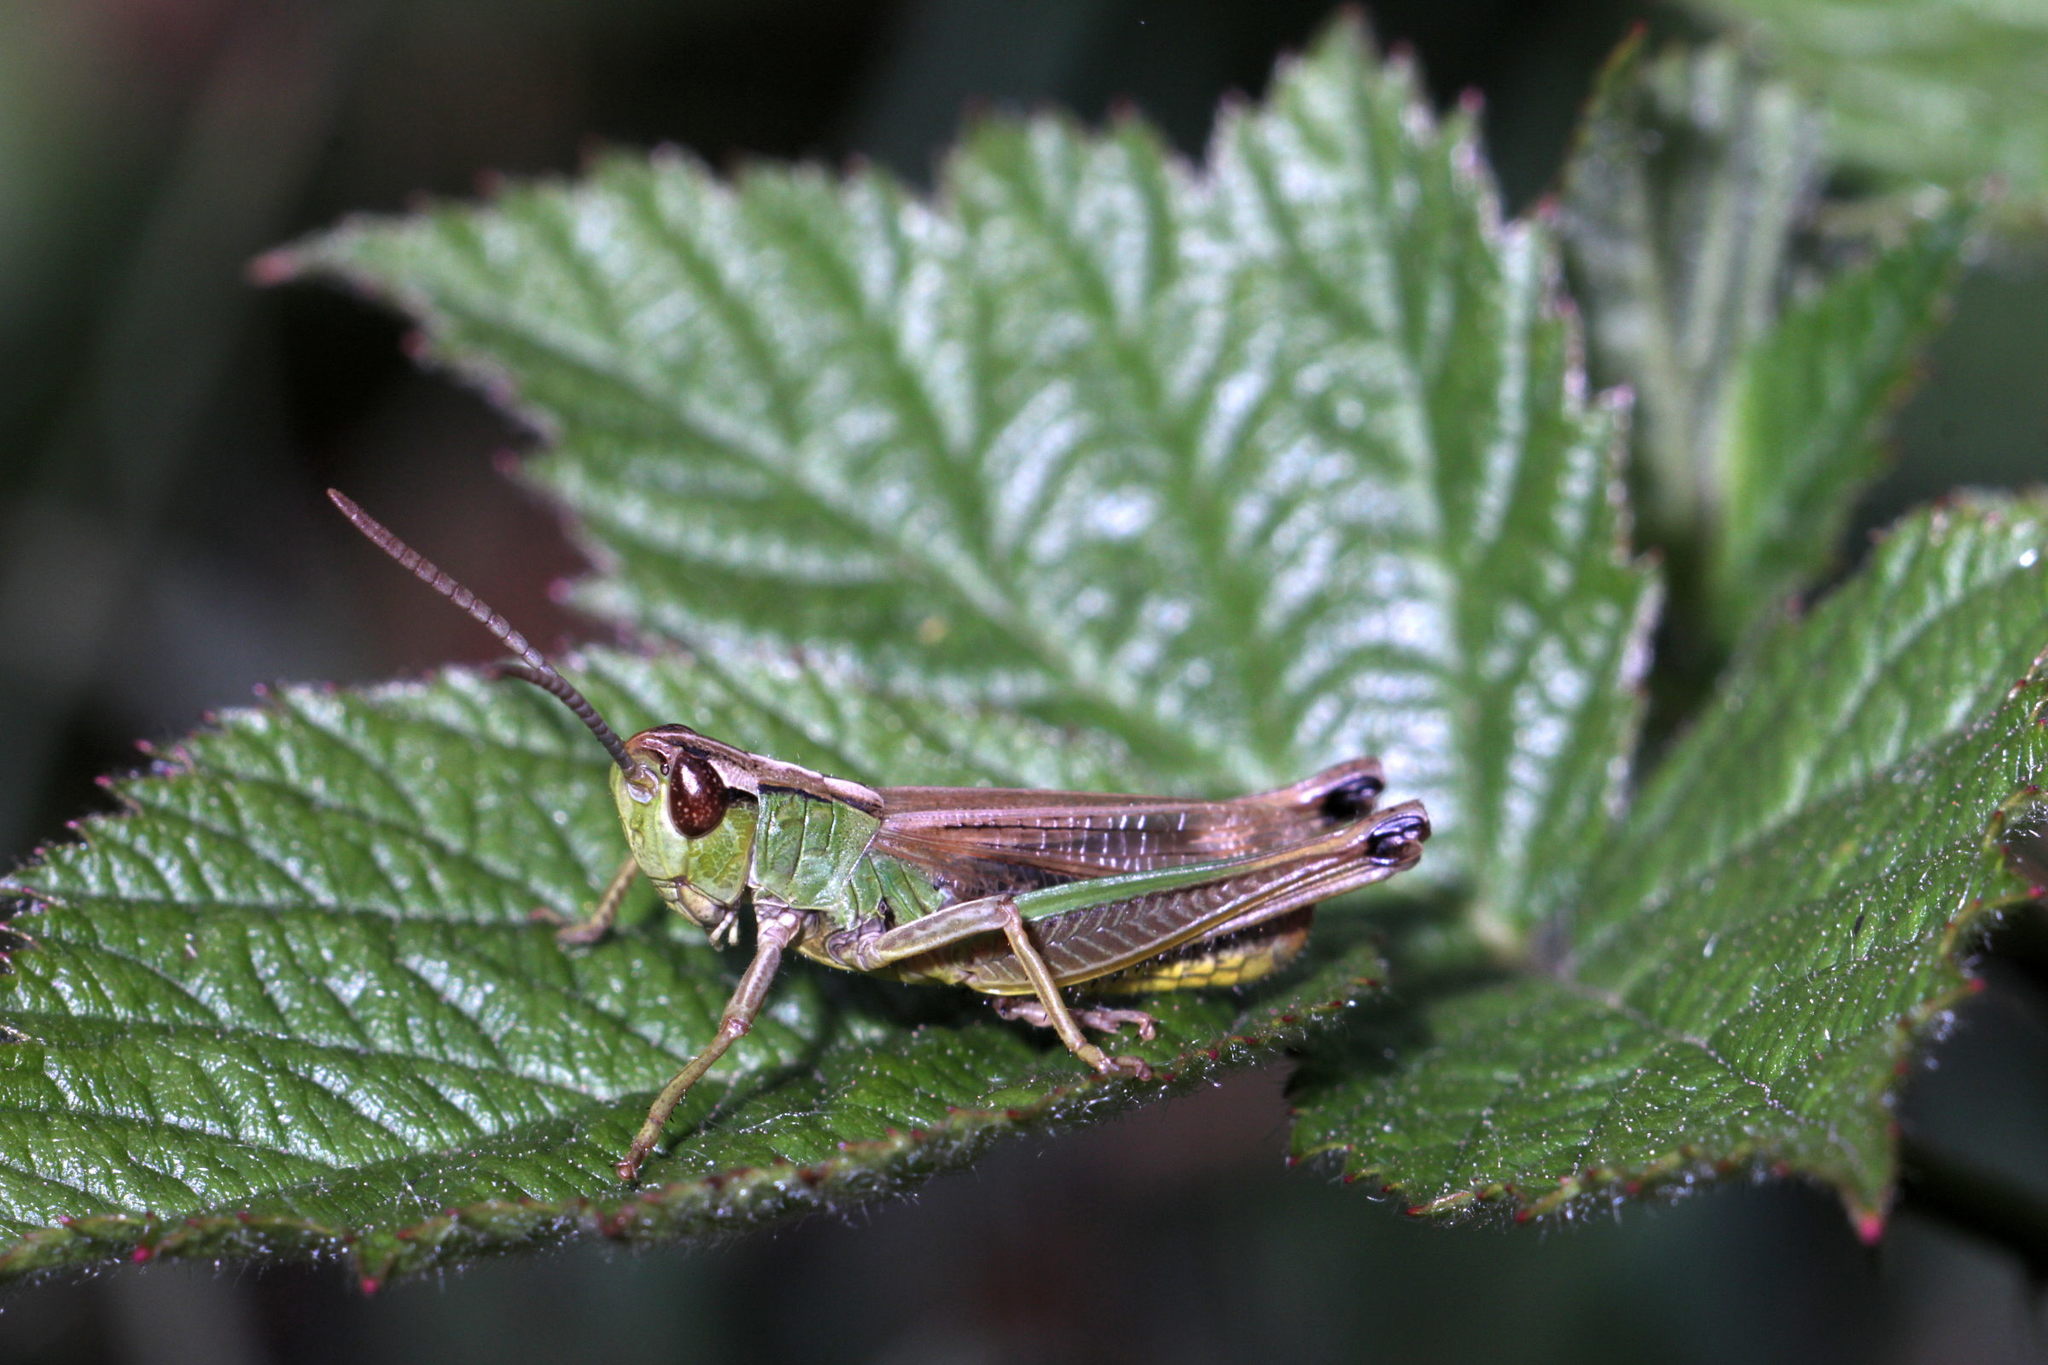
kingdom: Animalia
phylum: Arthropoda
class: Insecta
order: Orthoptera
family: Acrididae
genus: Pseudochorthippus
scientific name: Pseudochorthippus parallelus
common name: Meadow grasshopper
